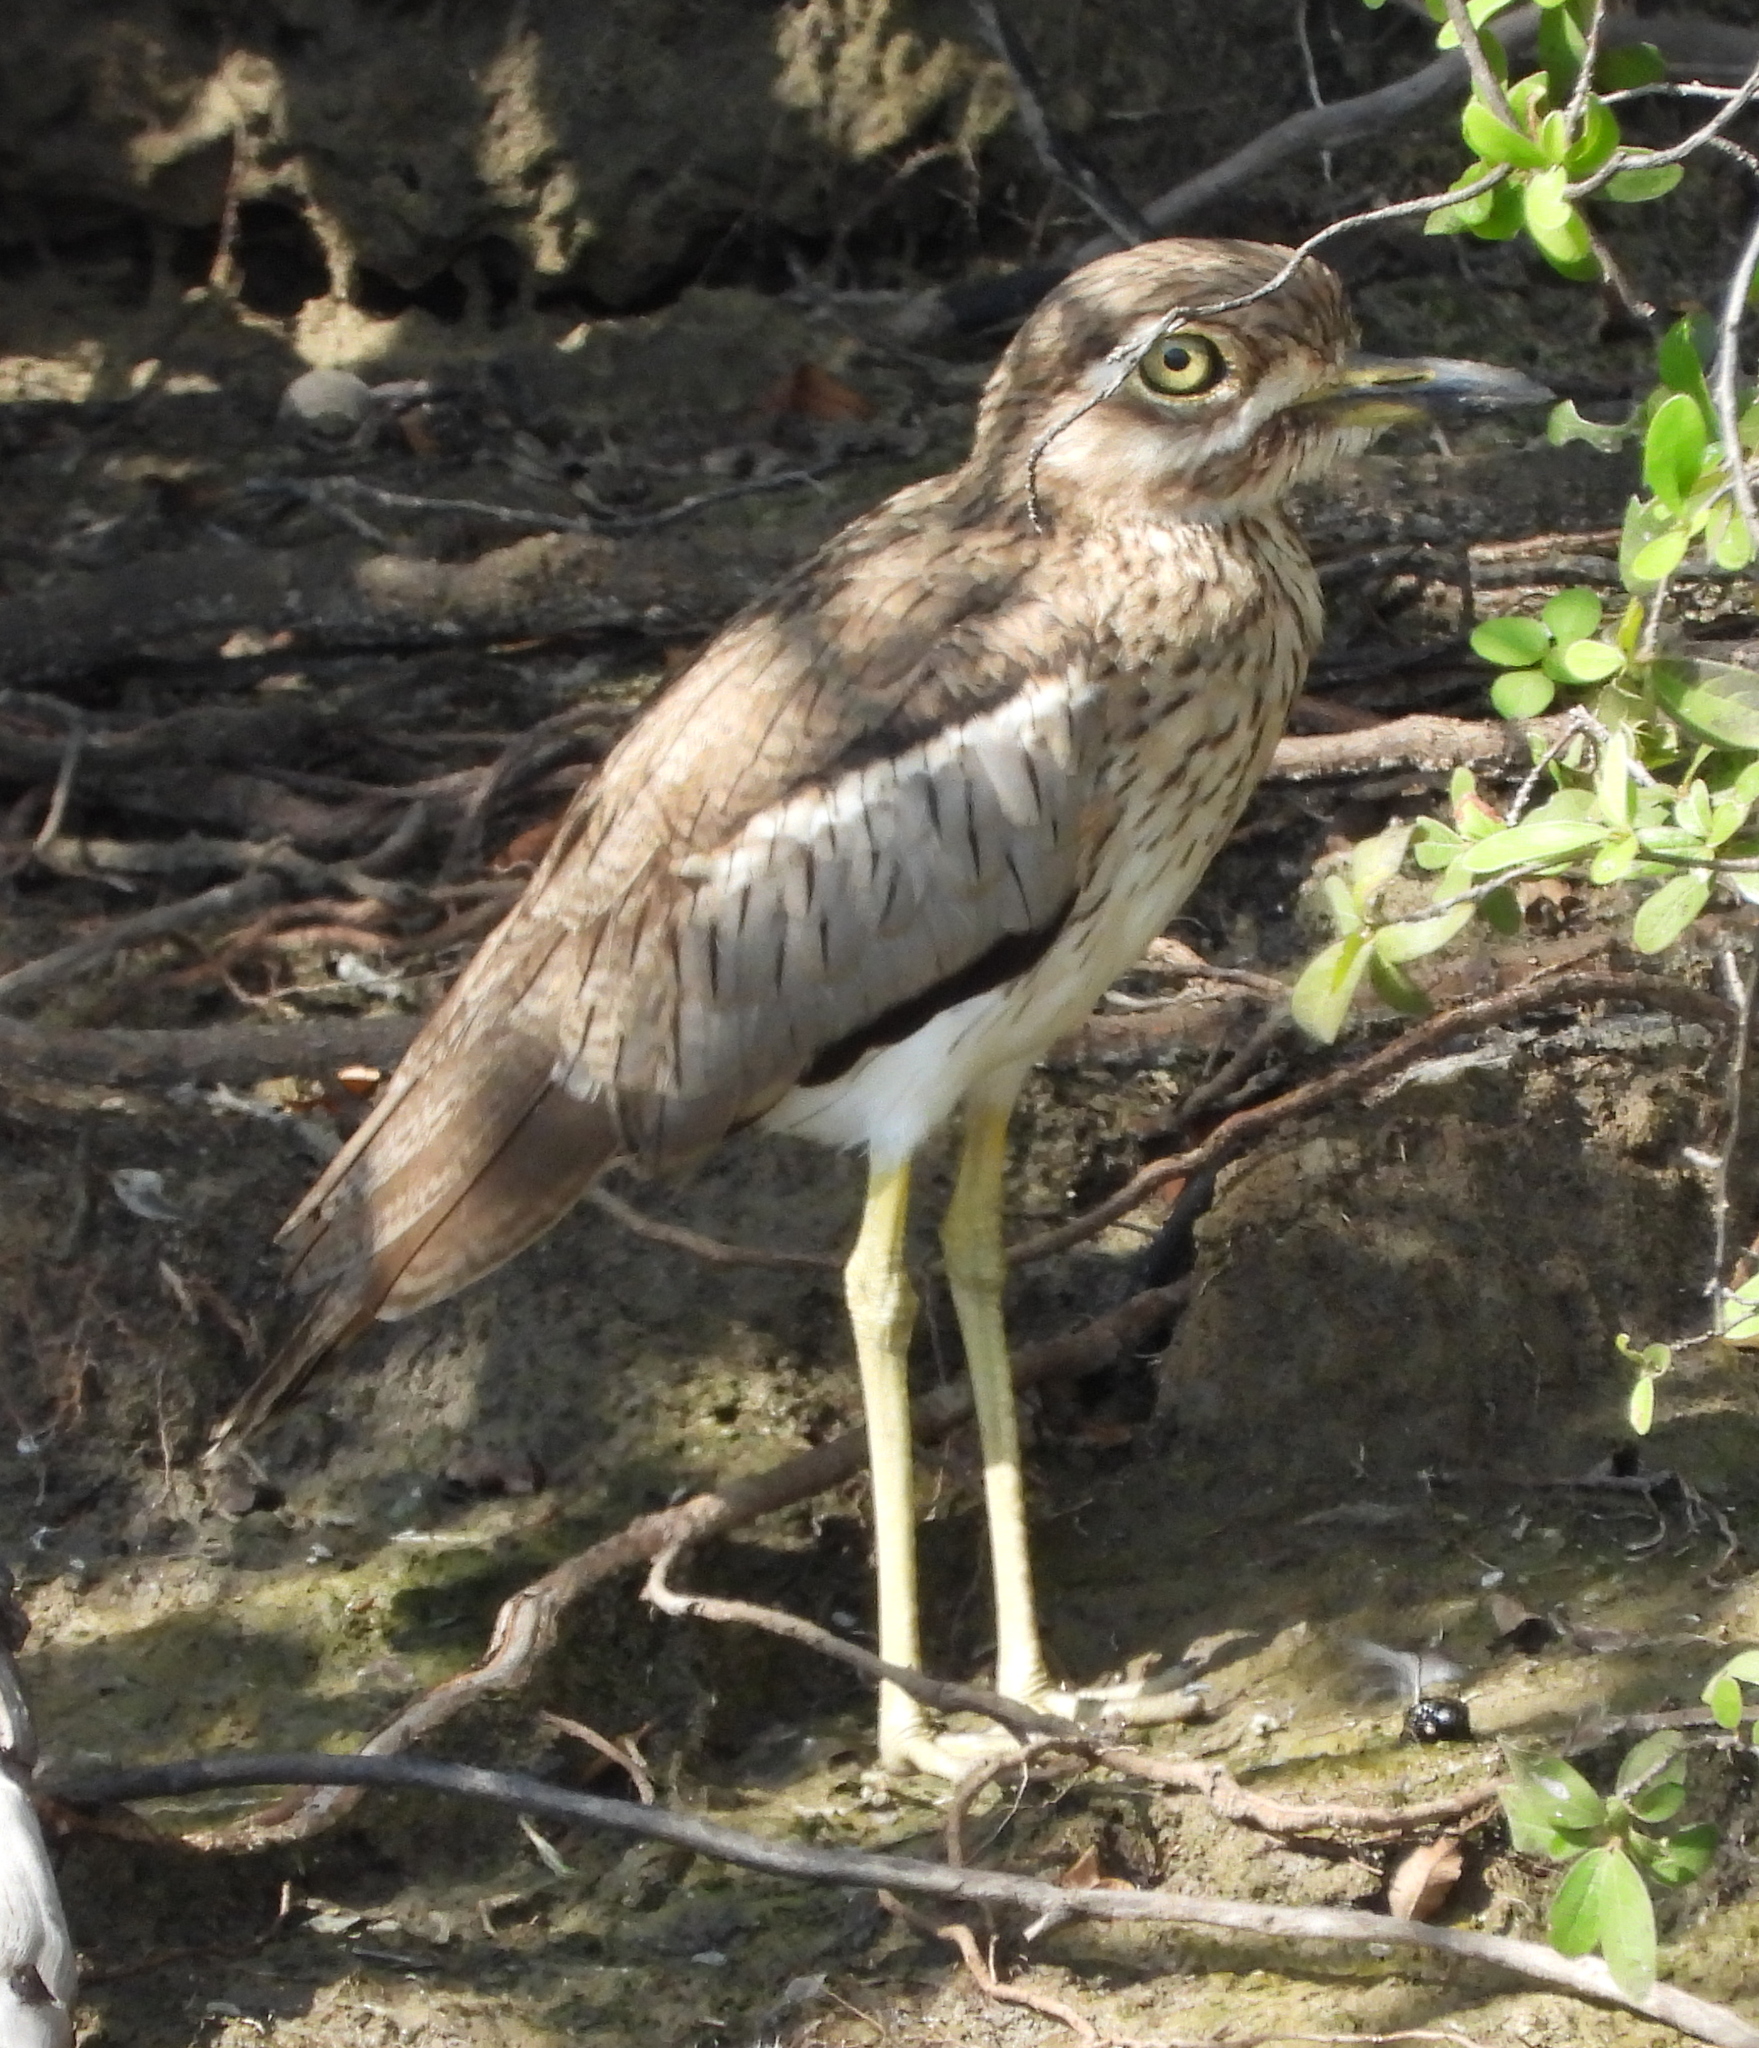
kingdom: Animalia
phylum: Chordata
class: Aves
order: Charadriiformes
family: Burhinidae
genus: Burhinus
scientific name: Burhinus vermiculatus
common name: Water thick-knee
